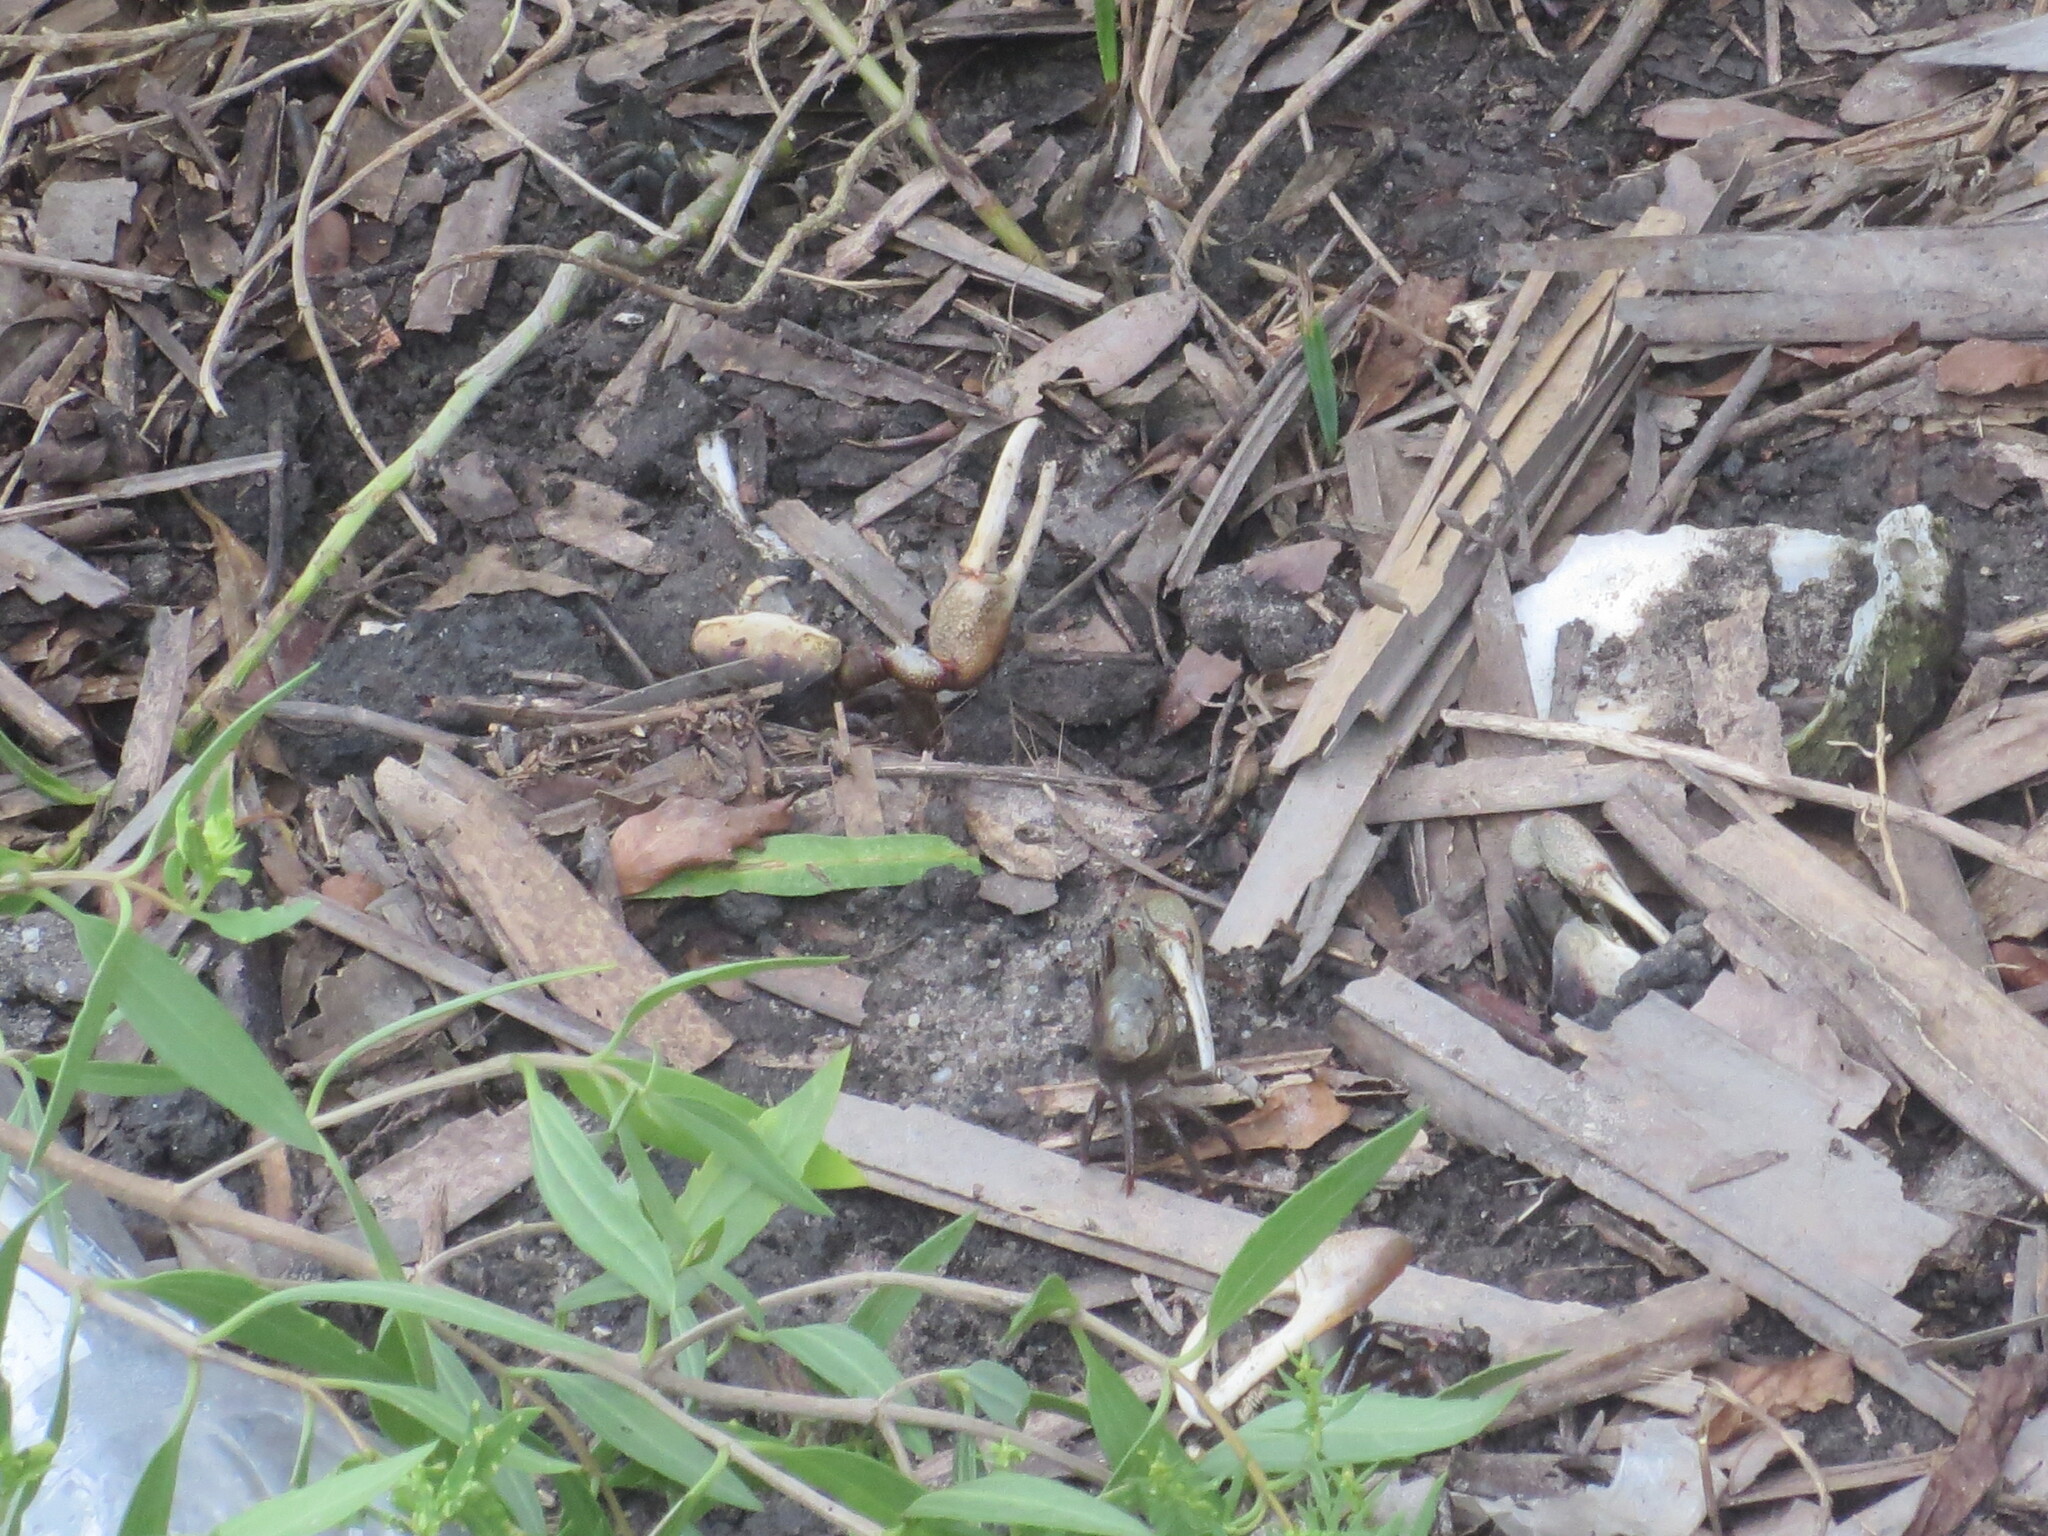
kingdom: Animalia
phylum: Arthropoda
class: Malacostraca
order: Decapoda
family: Ocypodidae
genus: Minuca
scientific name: Minuca minax
